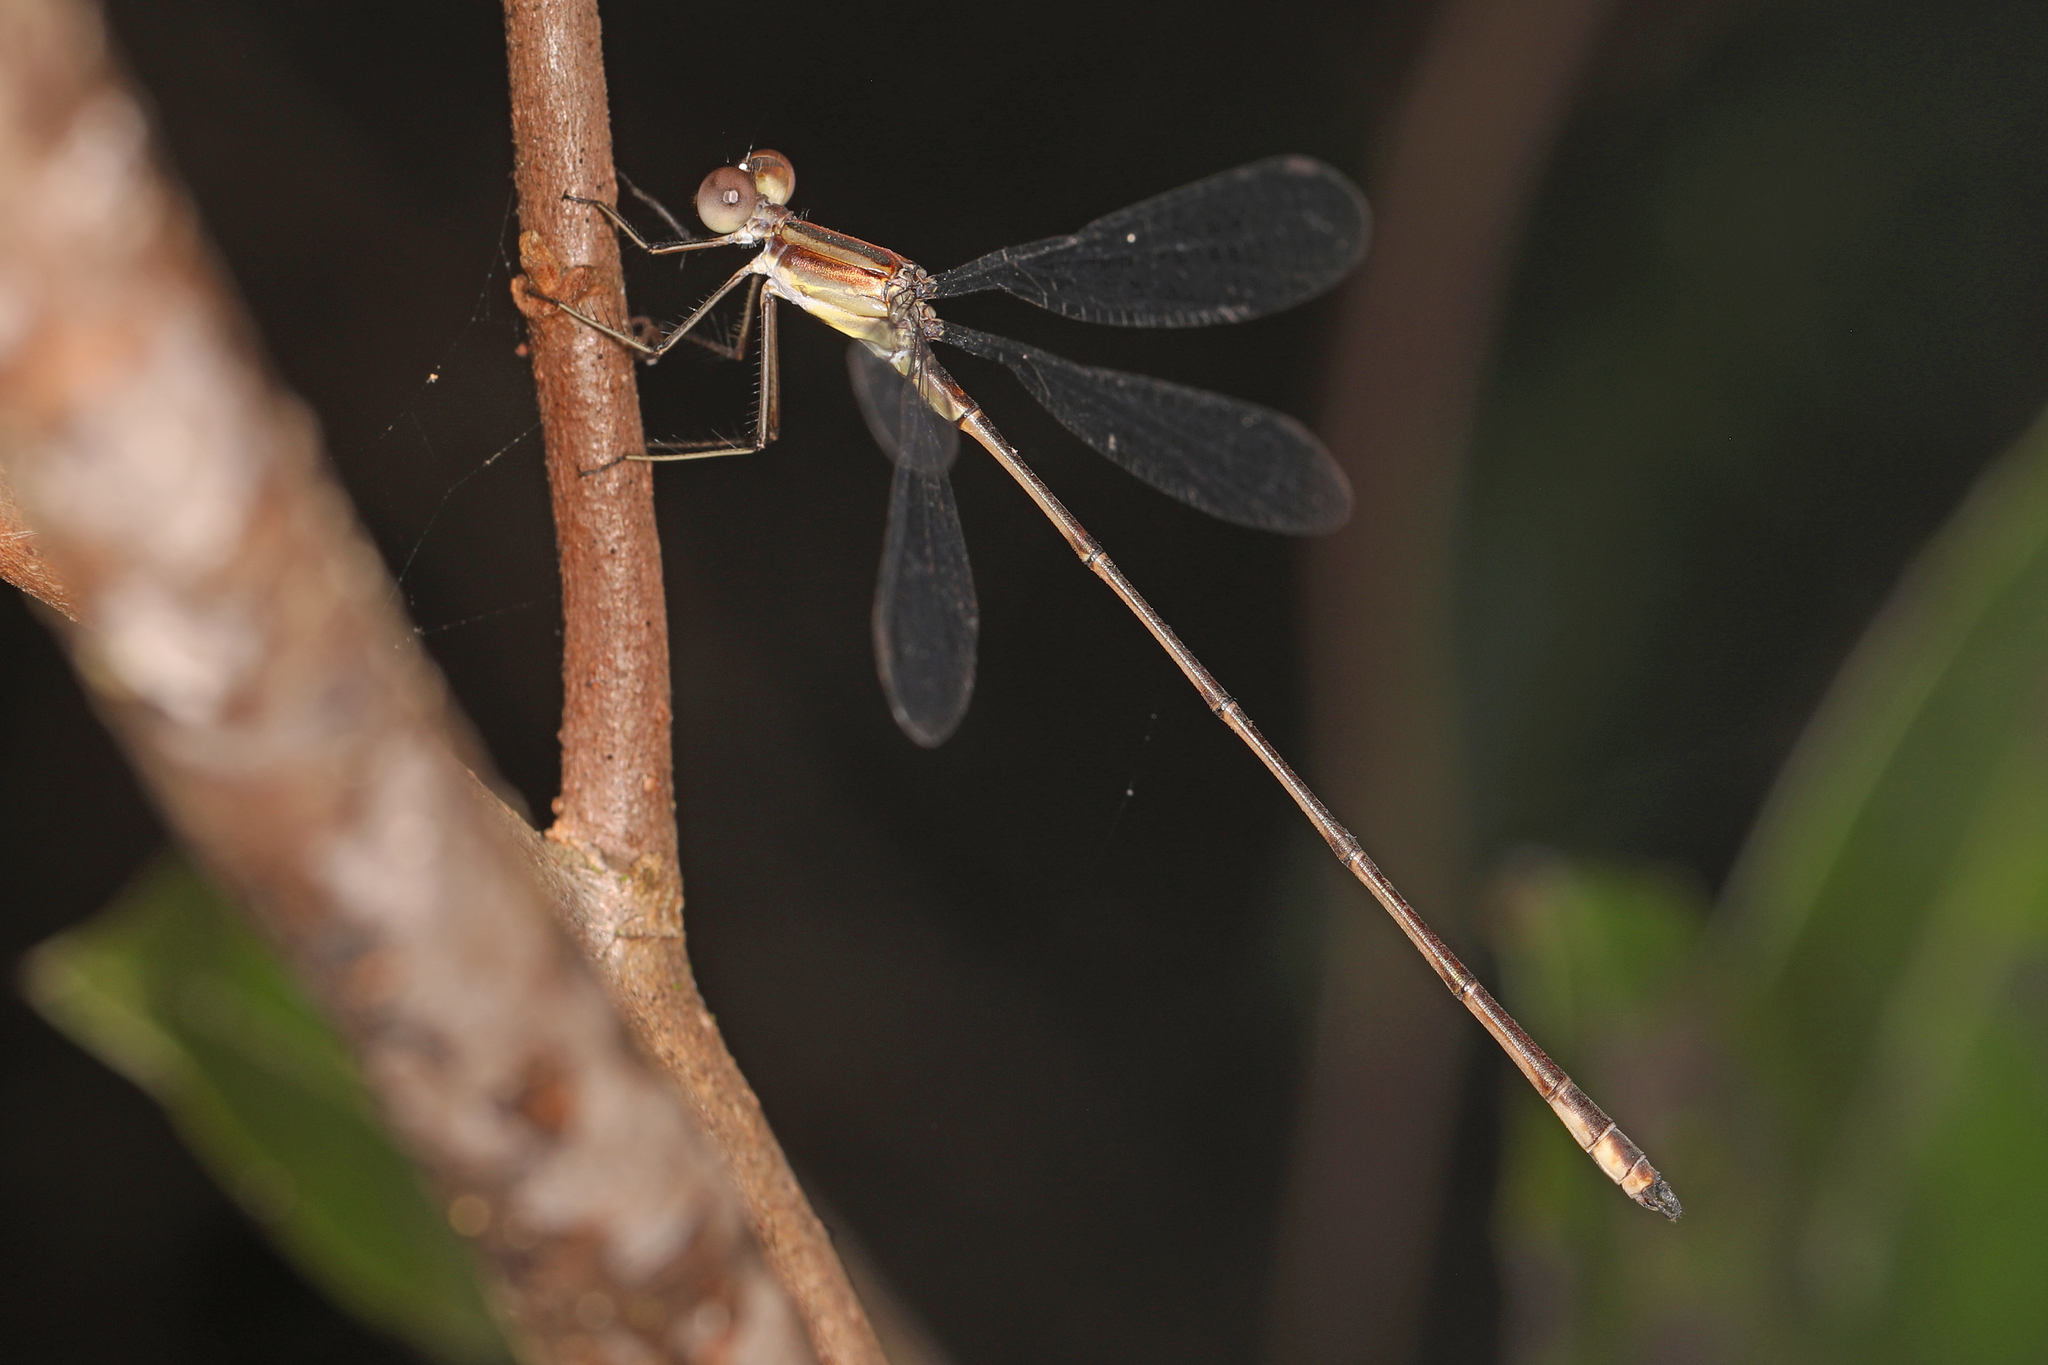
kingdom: Animalia
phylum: Arthropoda
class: Insecta
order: Odonata
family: Lestidae
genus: Lestes
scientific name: Lestes tenuatus
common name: Blue-striped spreadwing
